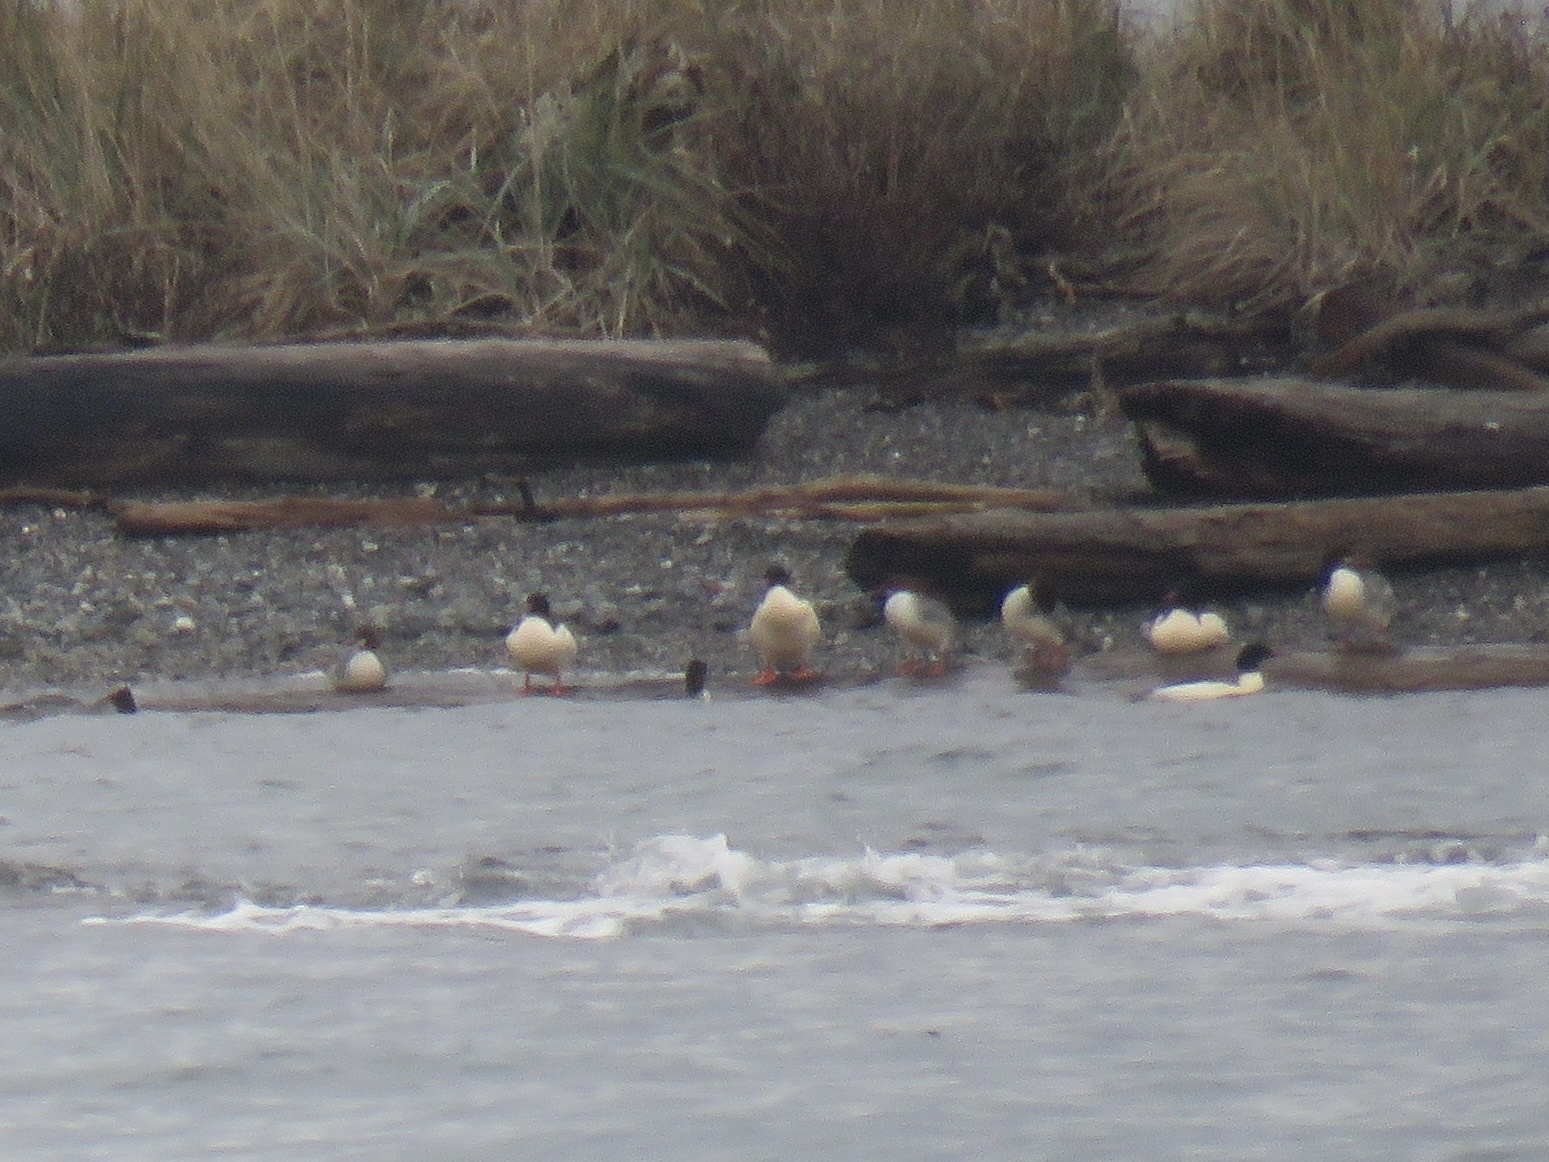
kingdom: Animalia
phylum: Chordata
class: Aves
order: Anseriformes
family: Anatidae
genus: Mergus
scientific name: Mergus merganser
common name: Common merganser
